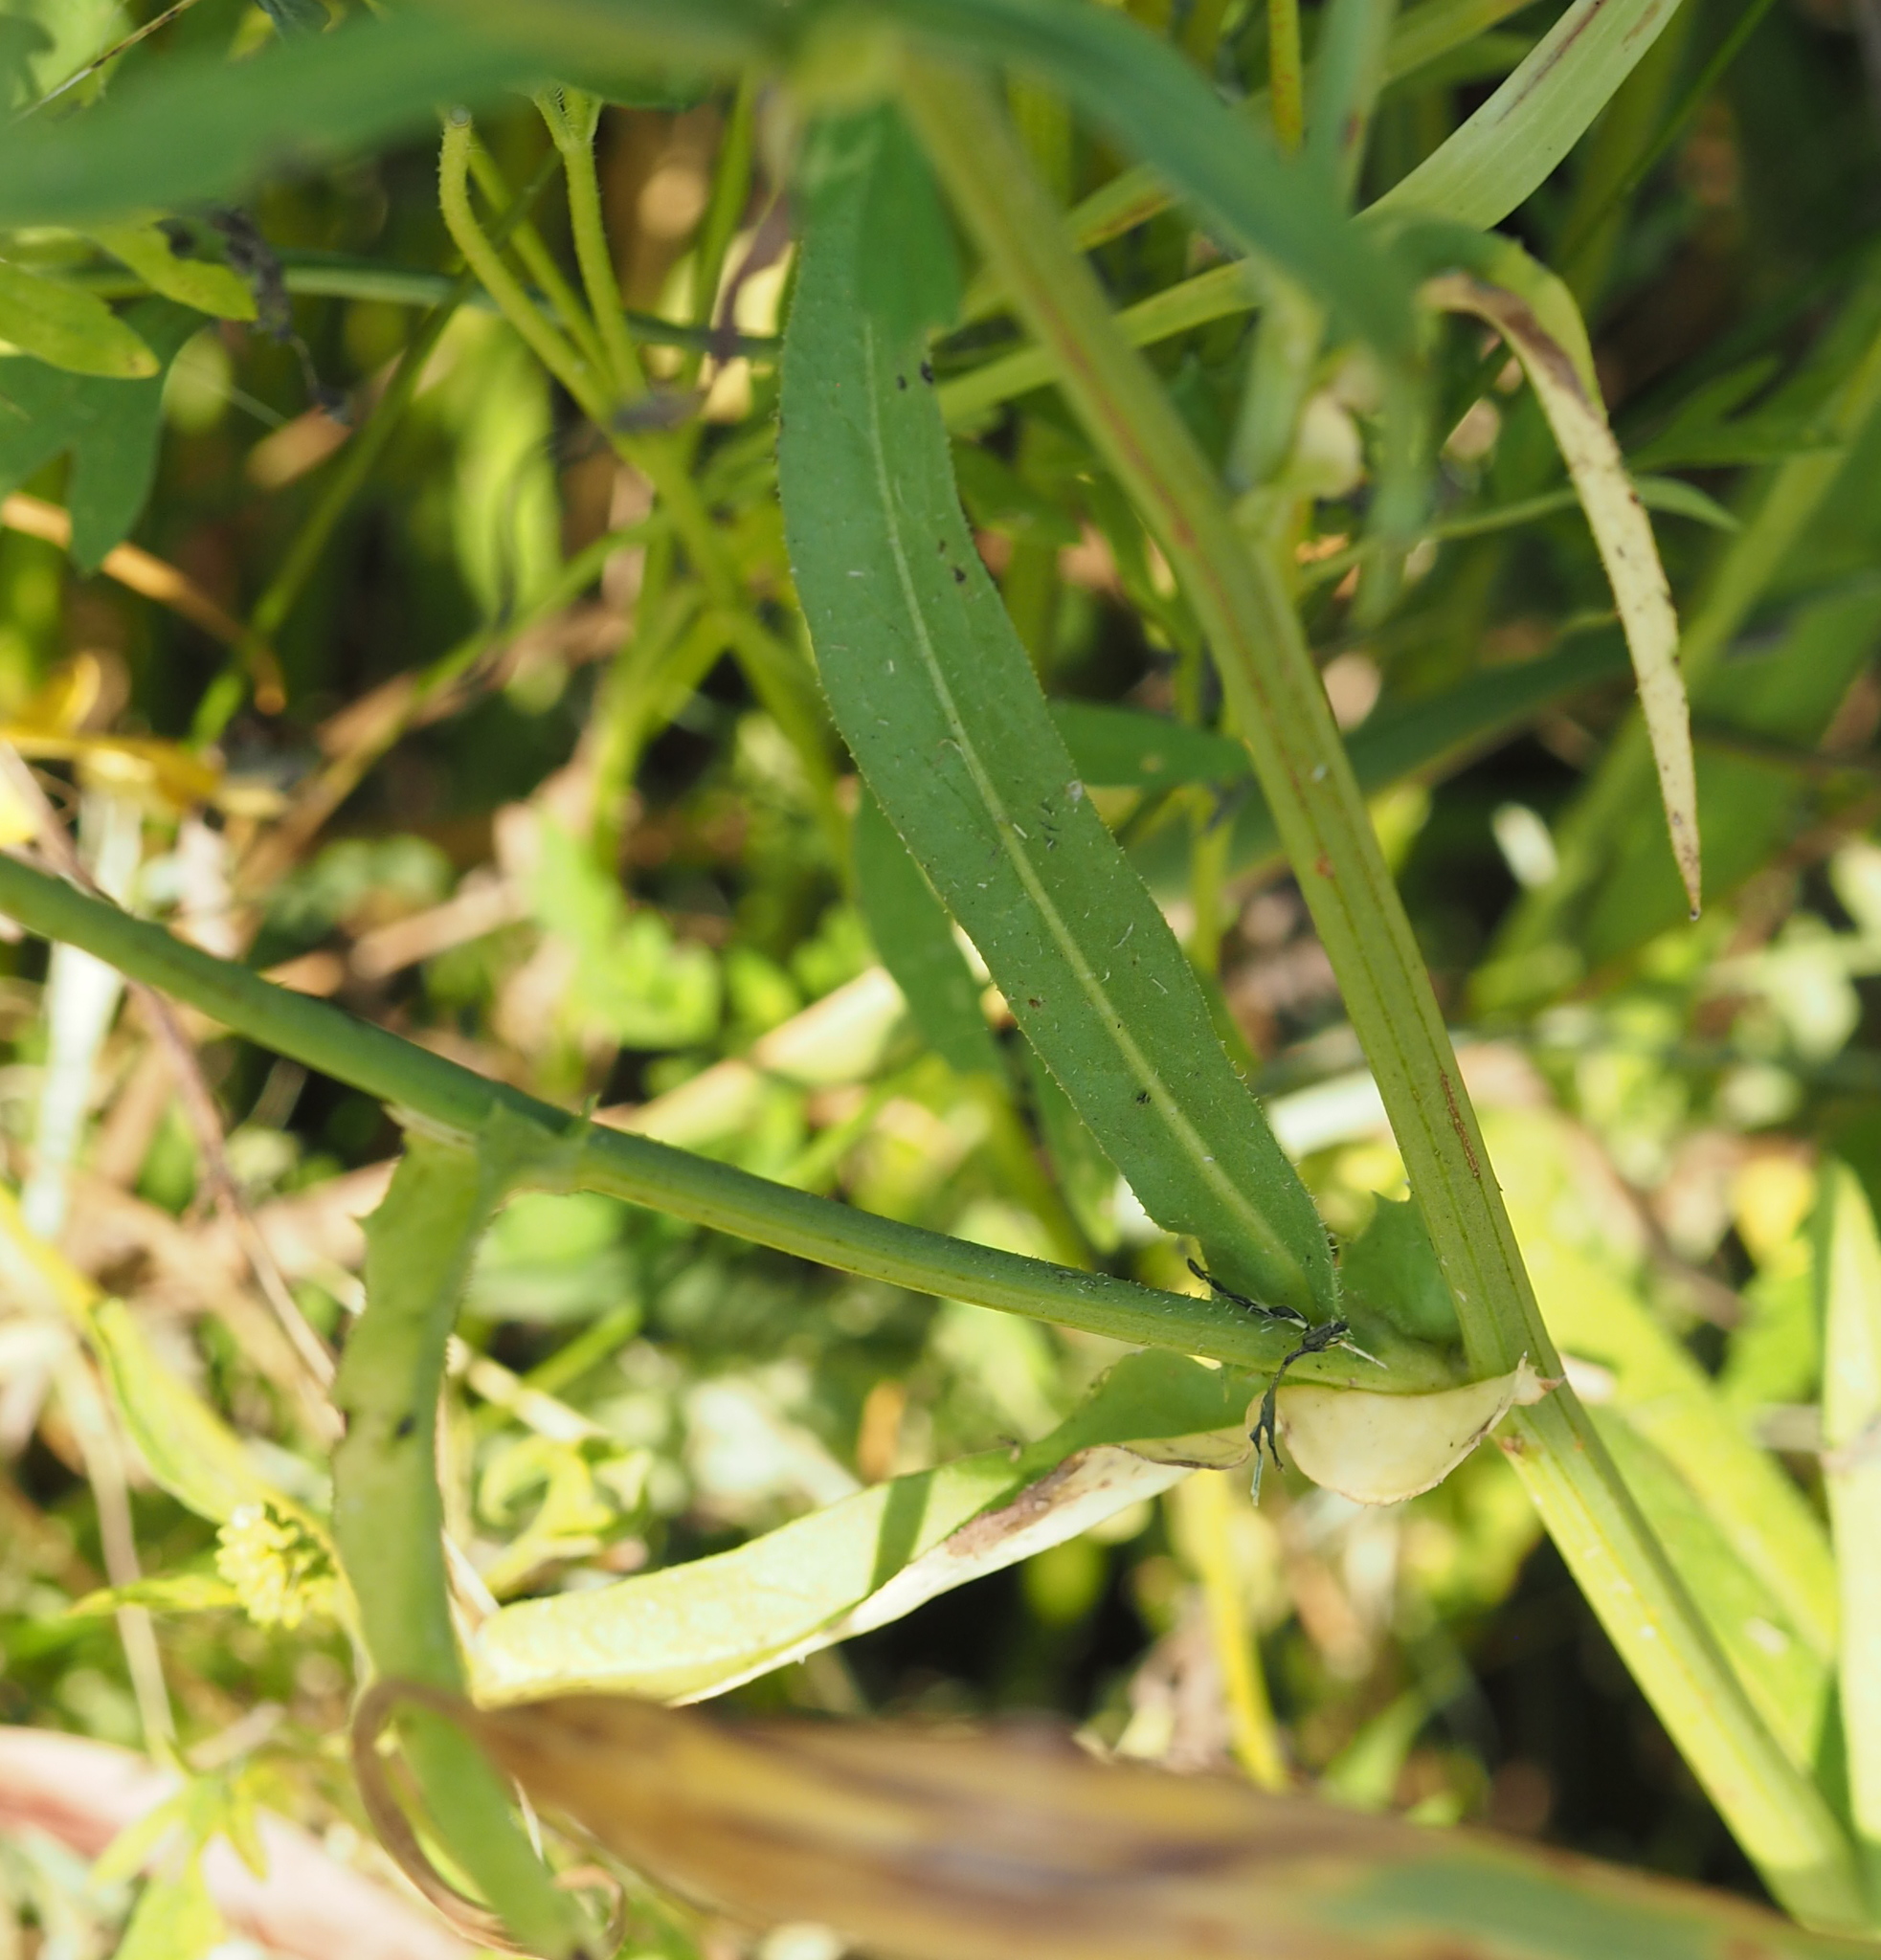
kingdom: Plantae
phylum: Tracheophyta
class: Magnoliopsida
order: Asterales
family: Asteraceae
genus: Cichorium
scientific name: Cichorium intybus
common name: Chicory
